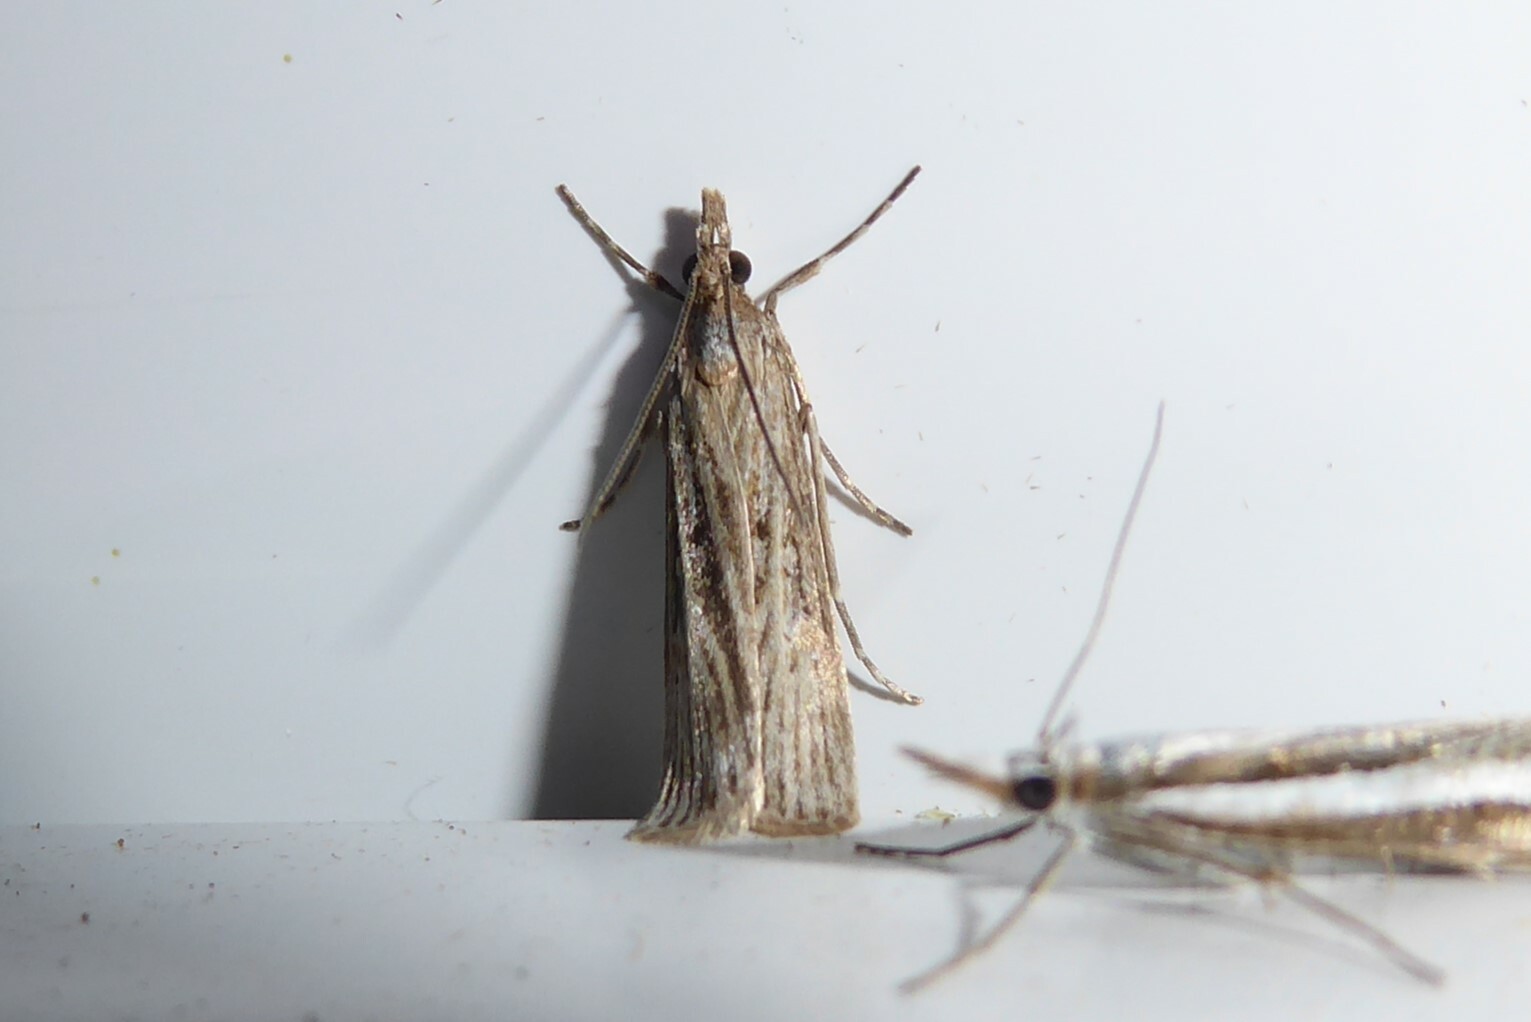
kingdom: Animalia
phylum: Arthropoda
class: Insecta
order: Lepidoptera
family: Crambidae
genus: Eudonia
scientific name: Eudonia atmogramma
